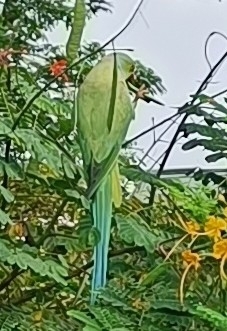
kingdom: Animalia
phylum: Chordata
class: Aves
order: Psittaciformes
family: Psittacidae
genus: Psittacula
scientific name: Psittacula krameri
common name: Rose-ringed parakeet
